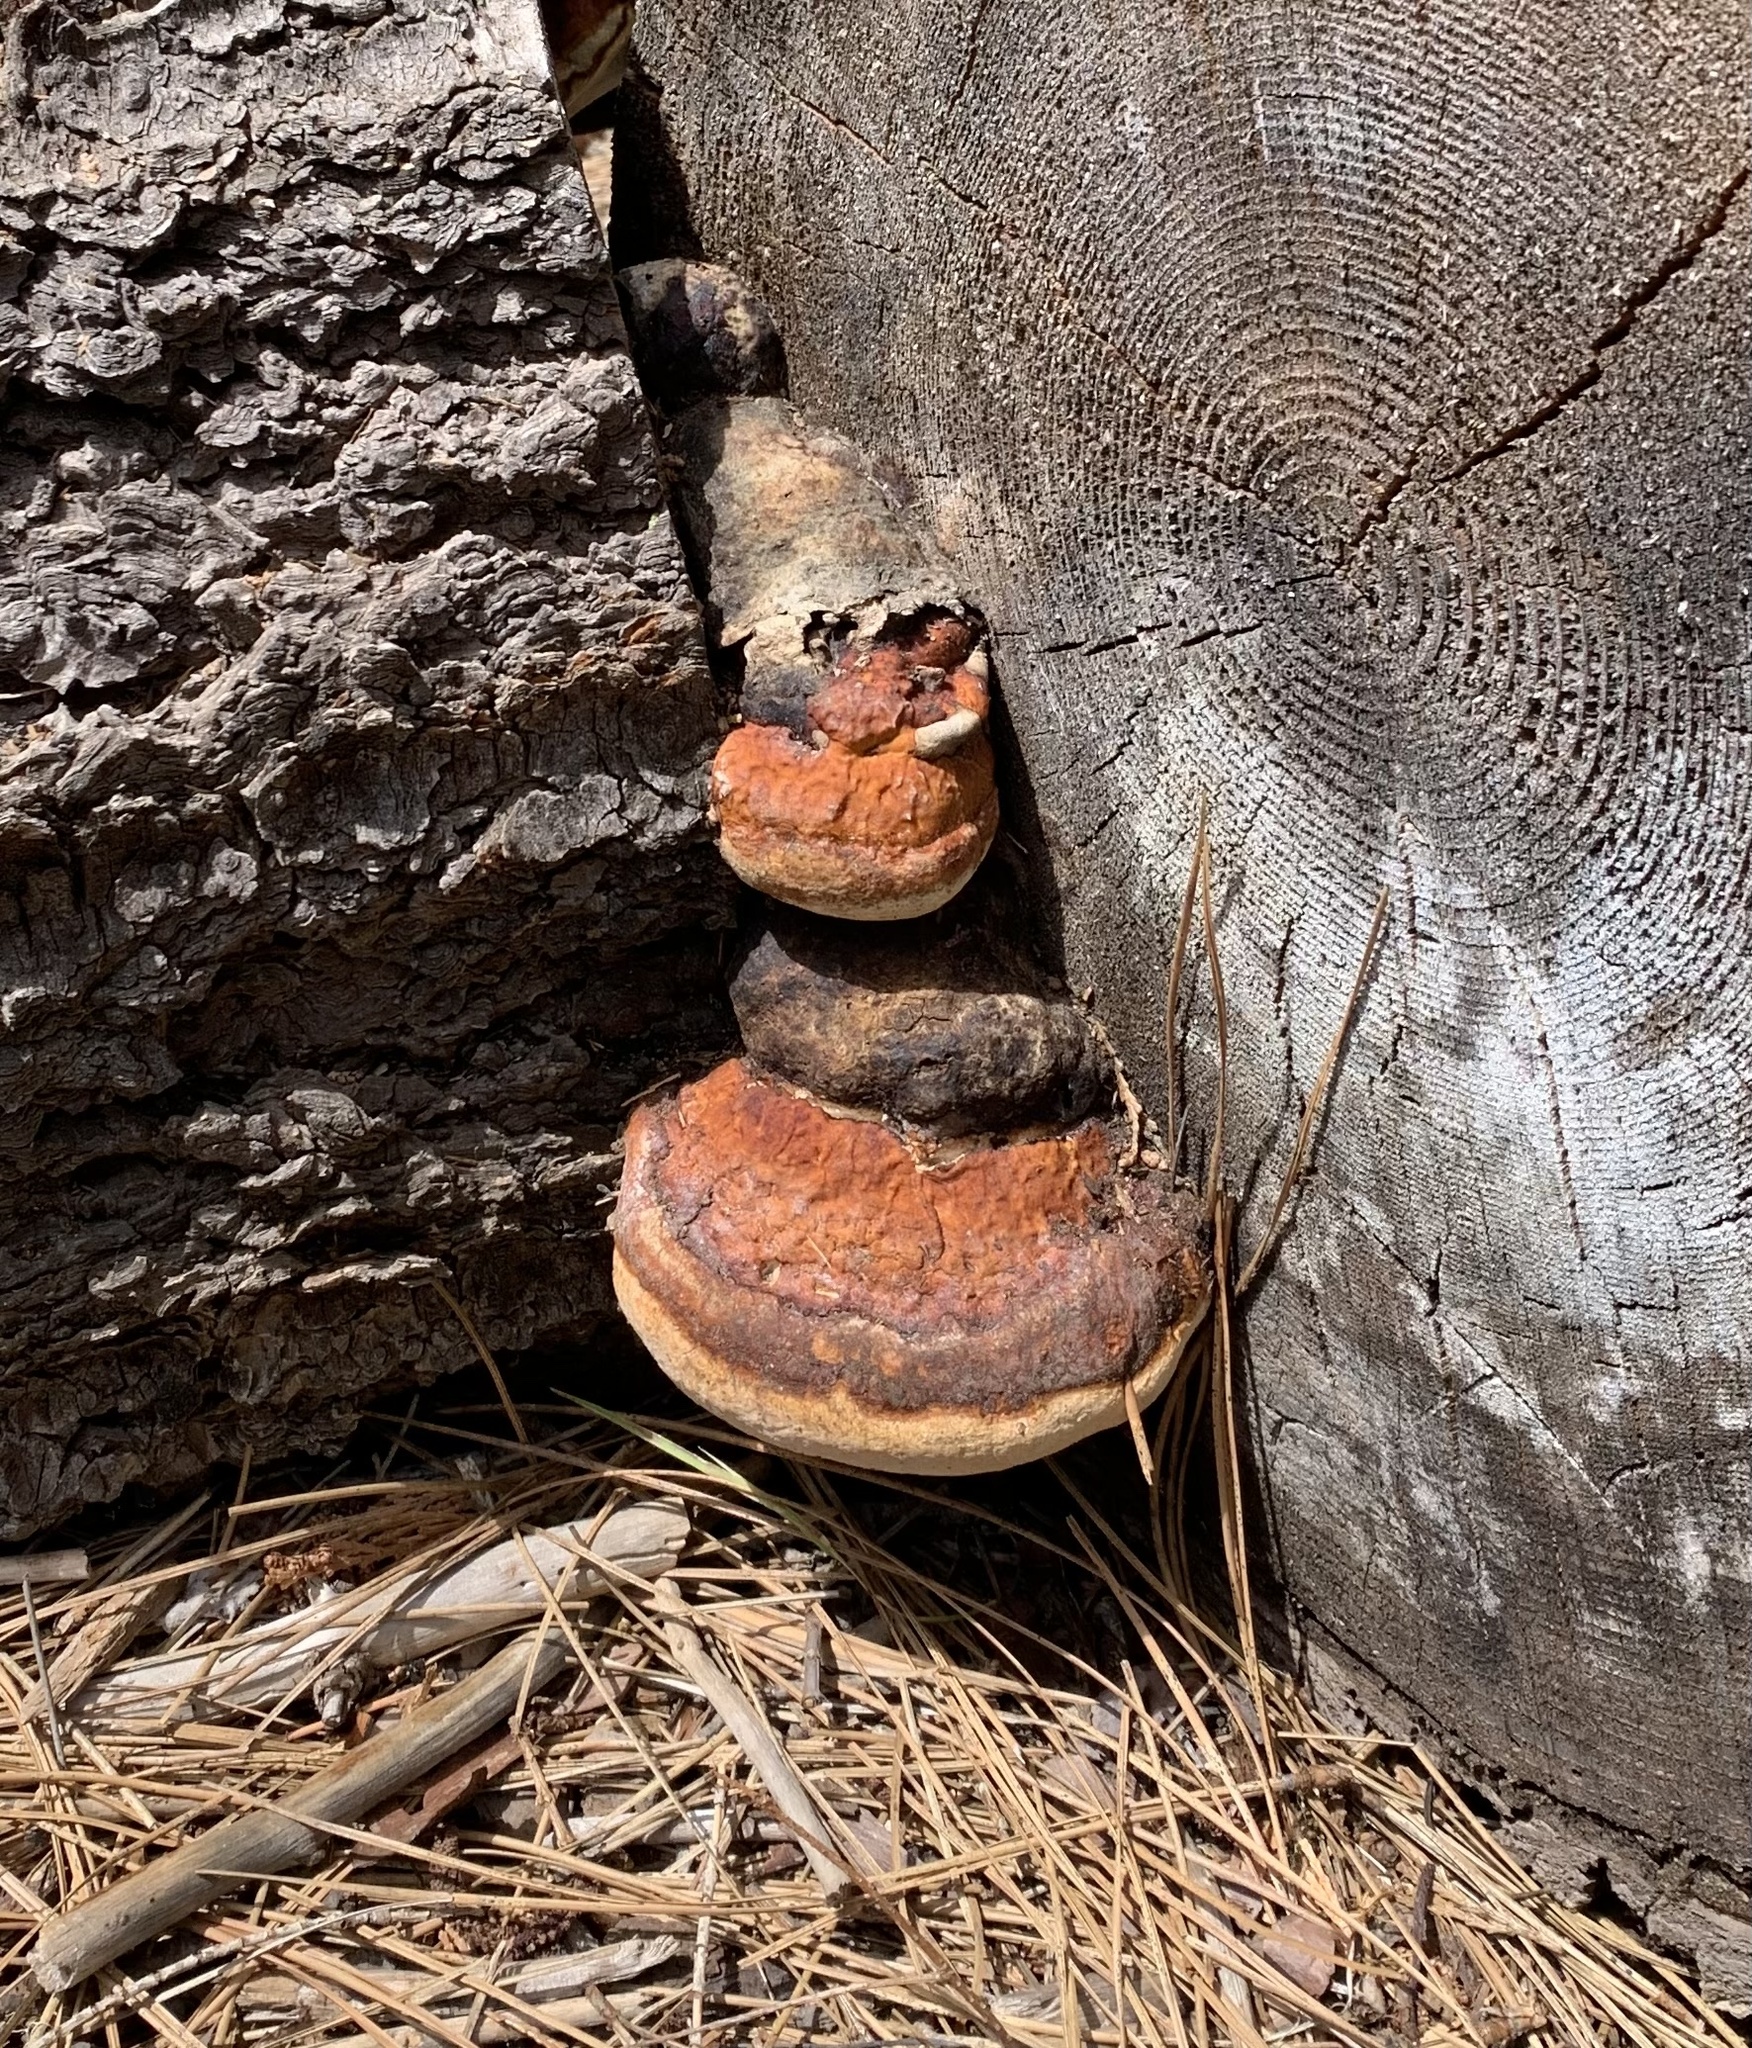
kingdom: Fungi
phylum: Basidiomycota
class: Agaricomycetes
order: Polyporales
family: Fomitopsidaceae
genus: Fomitopsis
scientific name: Fomitopsis mounceae
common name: Northern red belt
